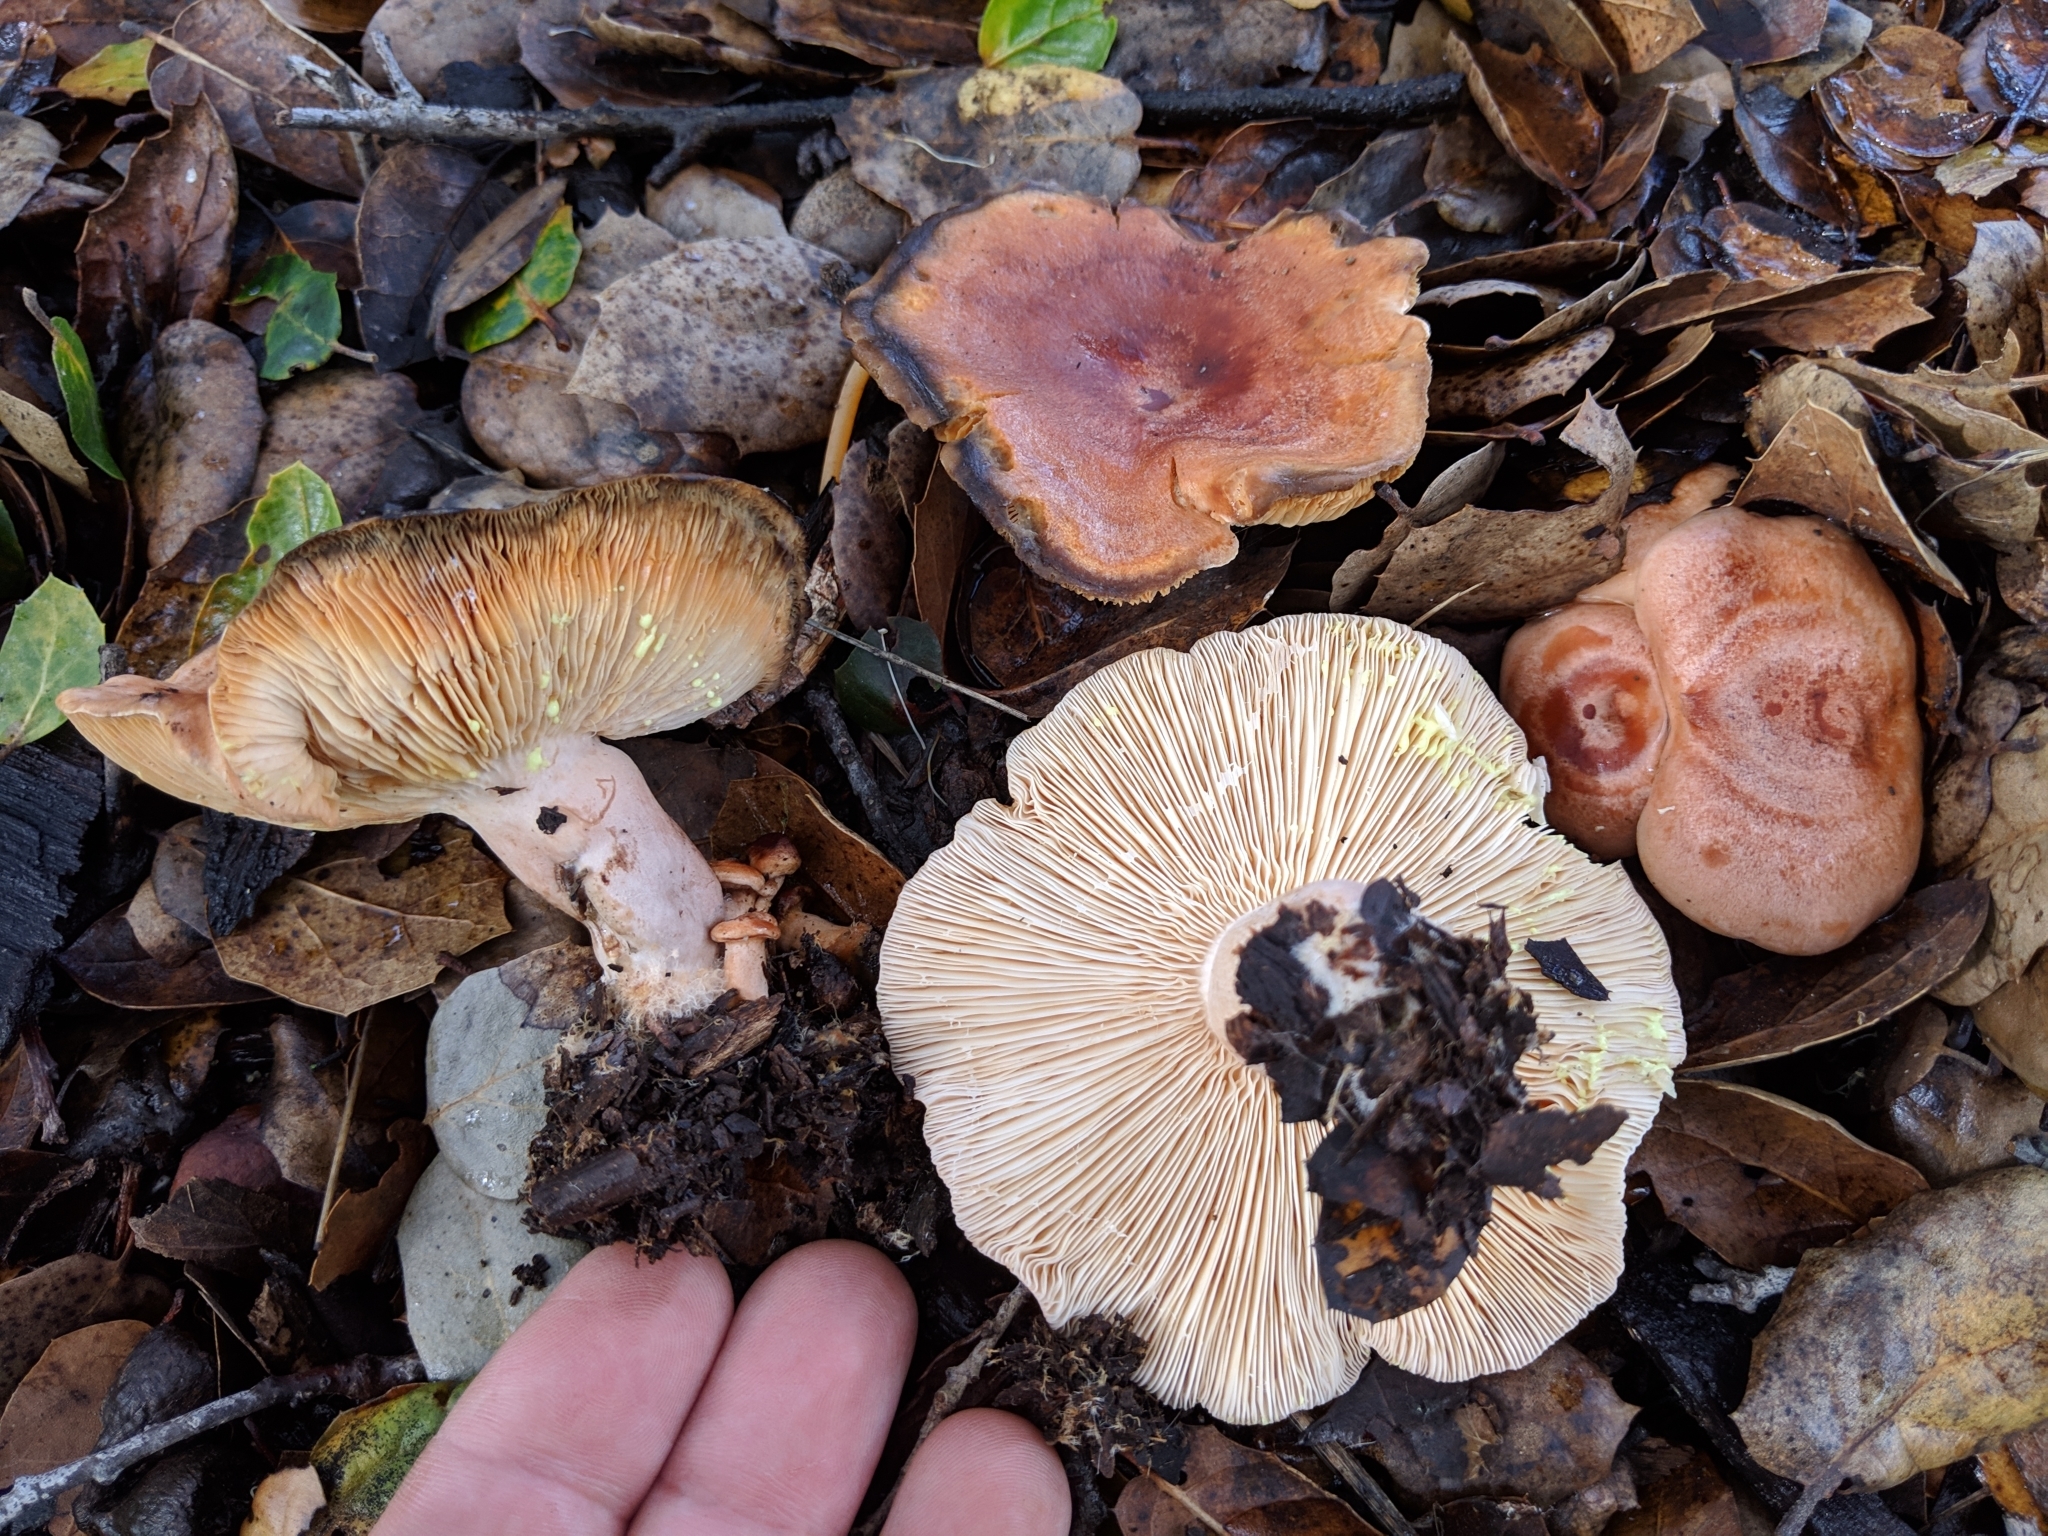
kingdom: Fungi
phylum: Basidiomycota
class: Agaricomycetes
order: Russulales
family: Russulaceae
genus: Lactarius
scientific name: Lactarius xanthogalactus
